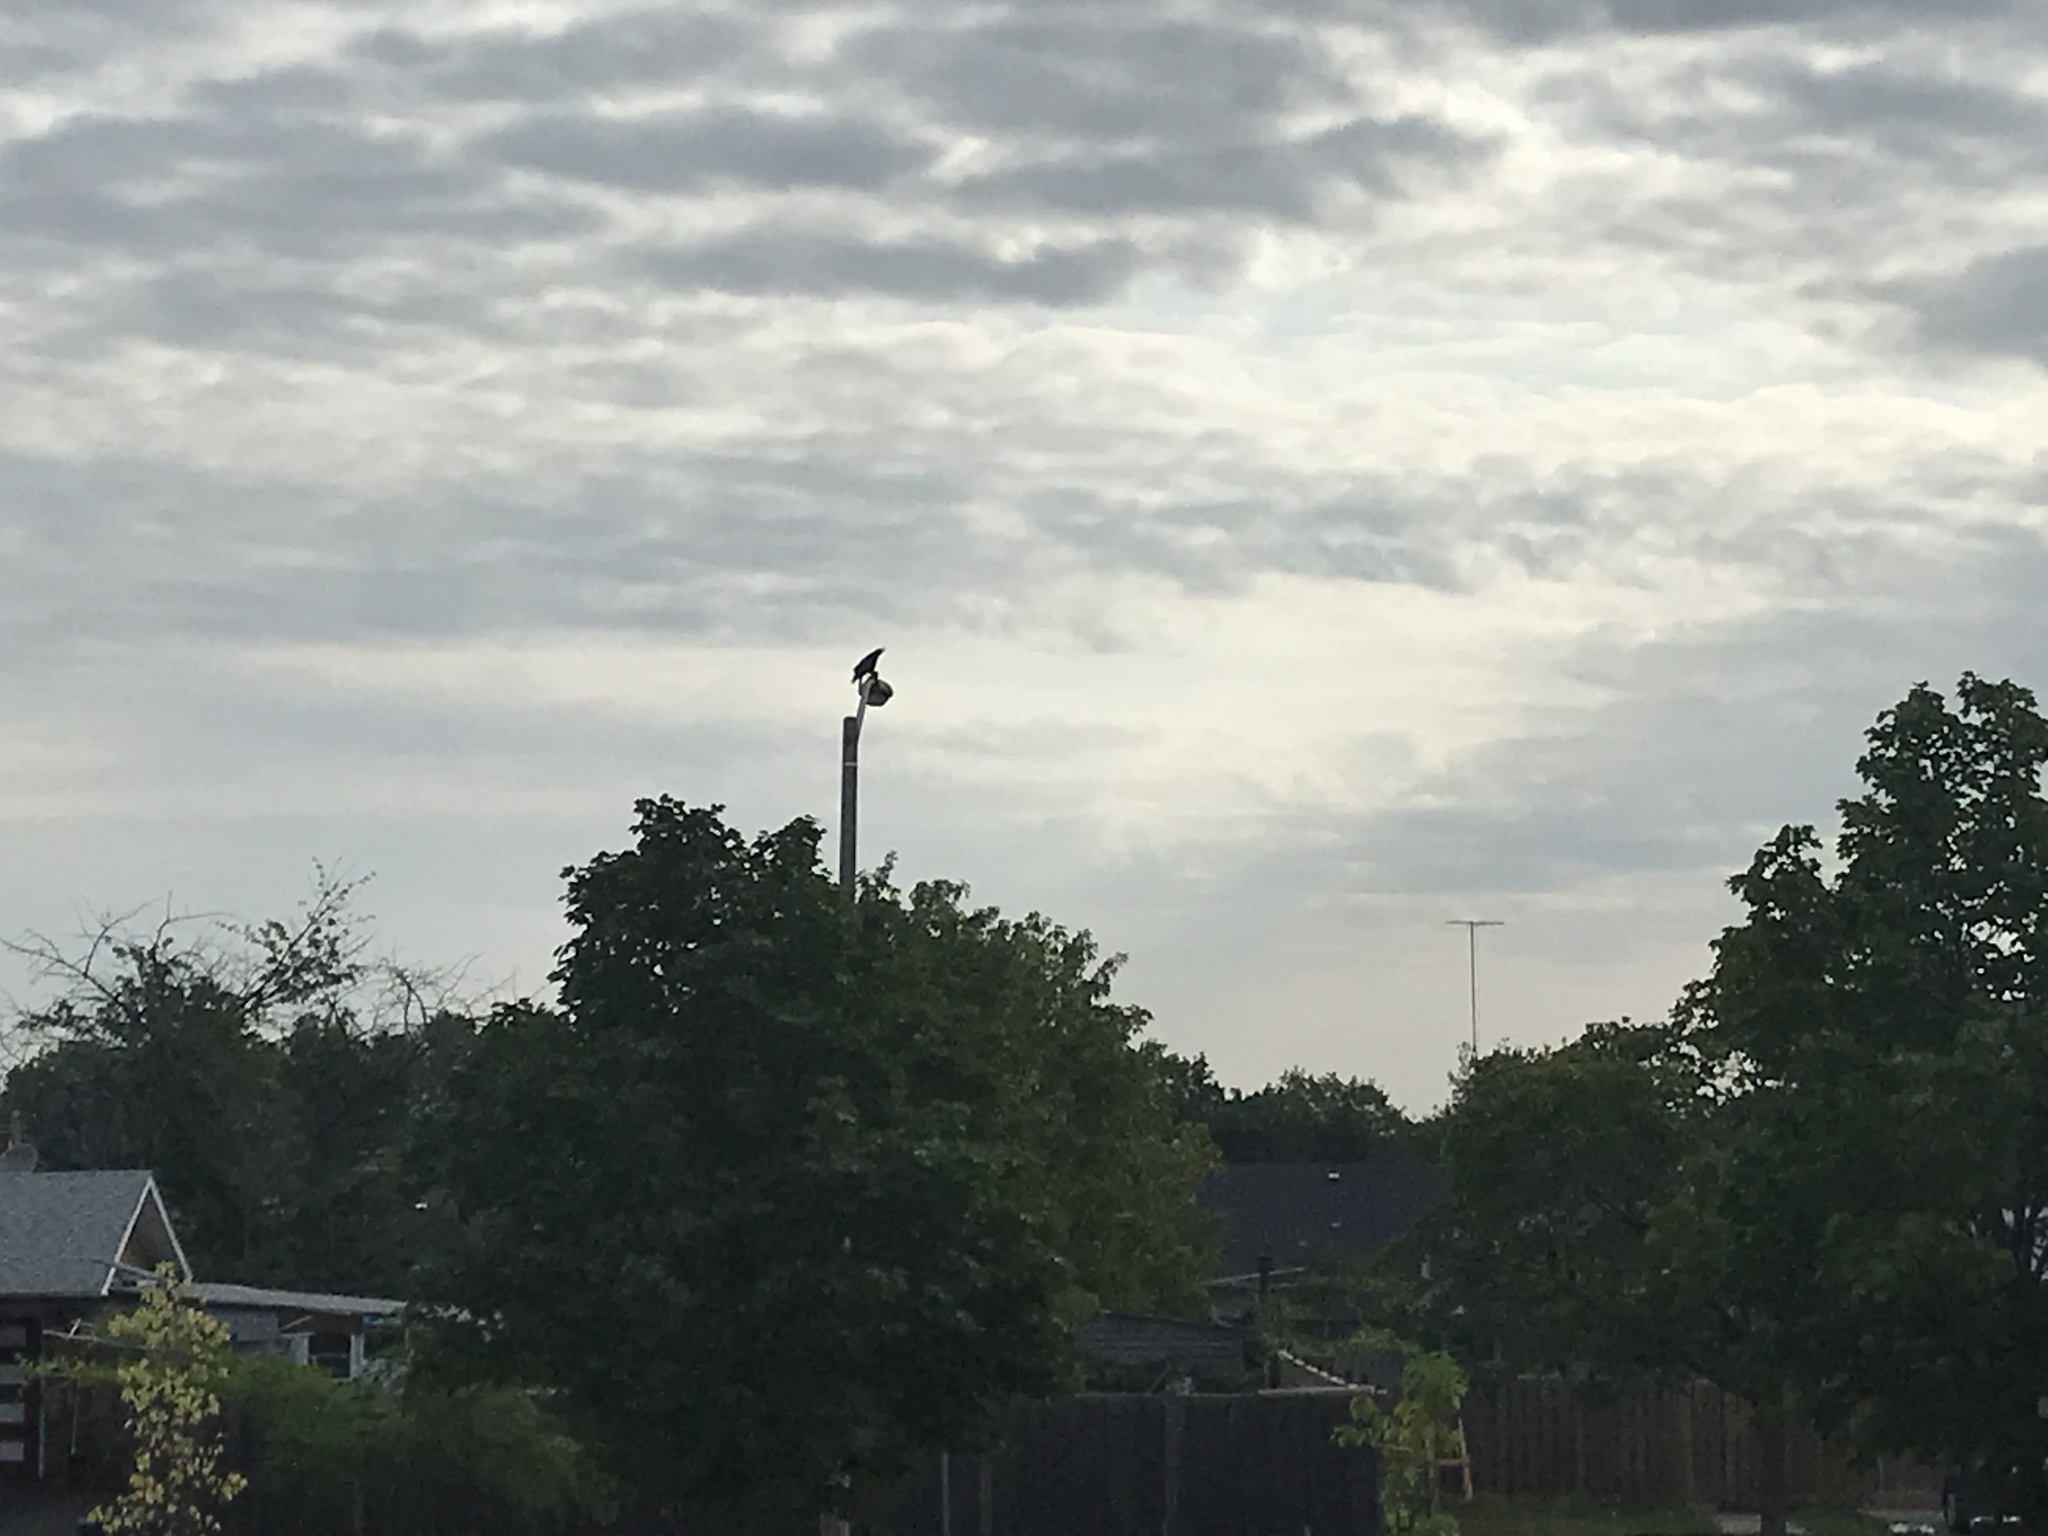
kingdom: Animalia
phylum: Chordata
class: Aves
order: Passeriformes
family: Corvidae
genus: Corvus
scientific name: Corvus brachyrhynchos
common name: American crow
